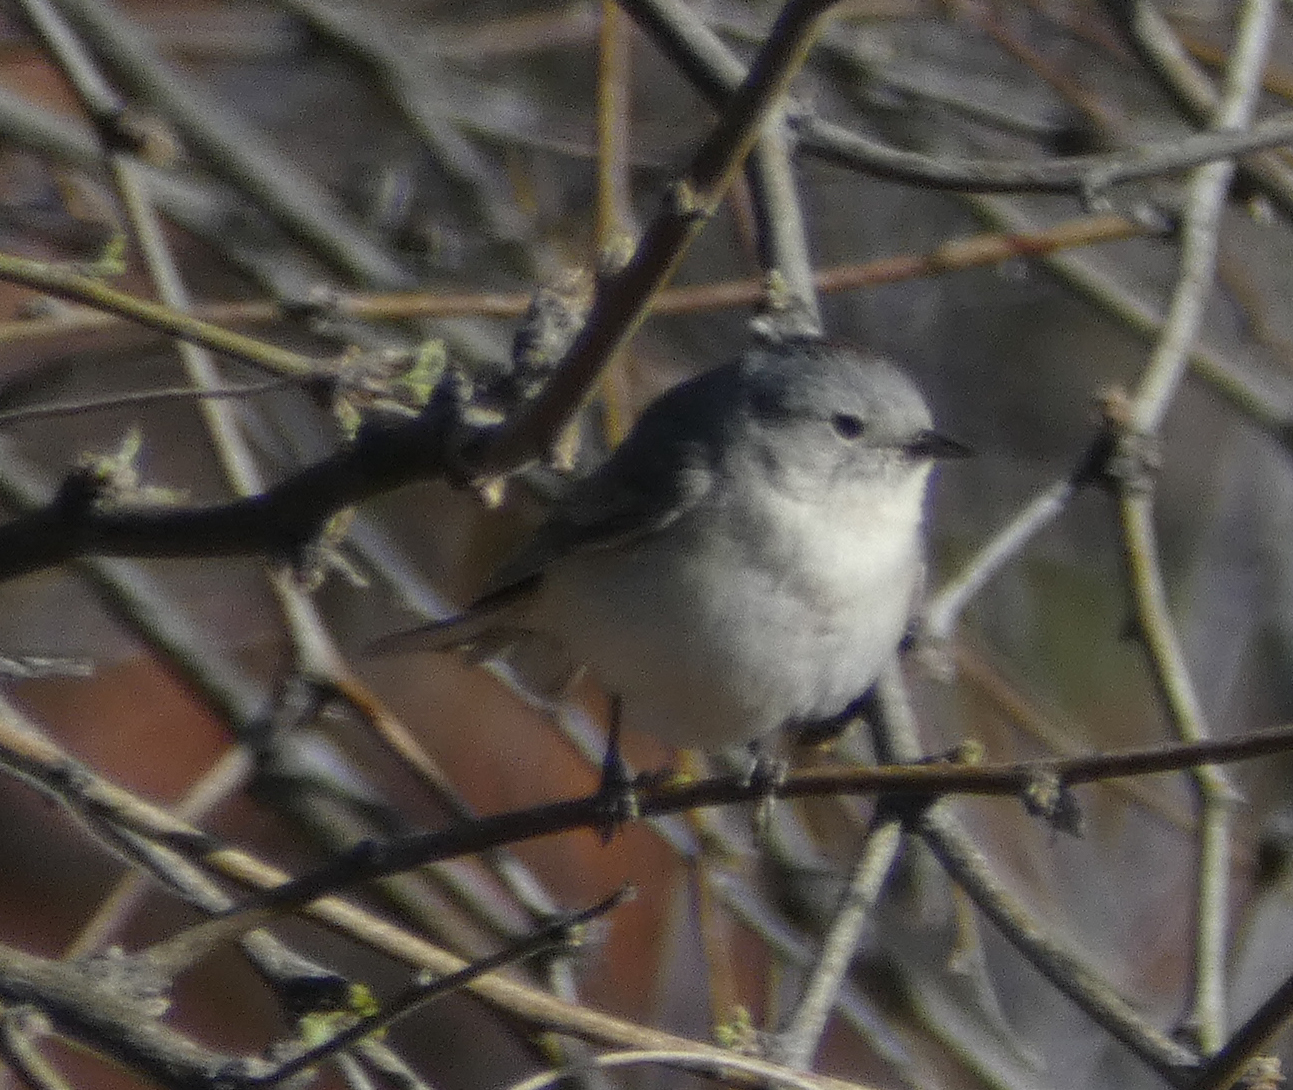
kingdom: Animalia
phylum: Chordata
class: Aves
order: Passeriformes
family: Parulidae
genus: Leiothlypis
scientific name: Leiothlypis luciae
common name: Lucy's warbler
